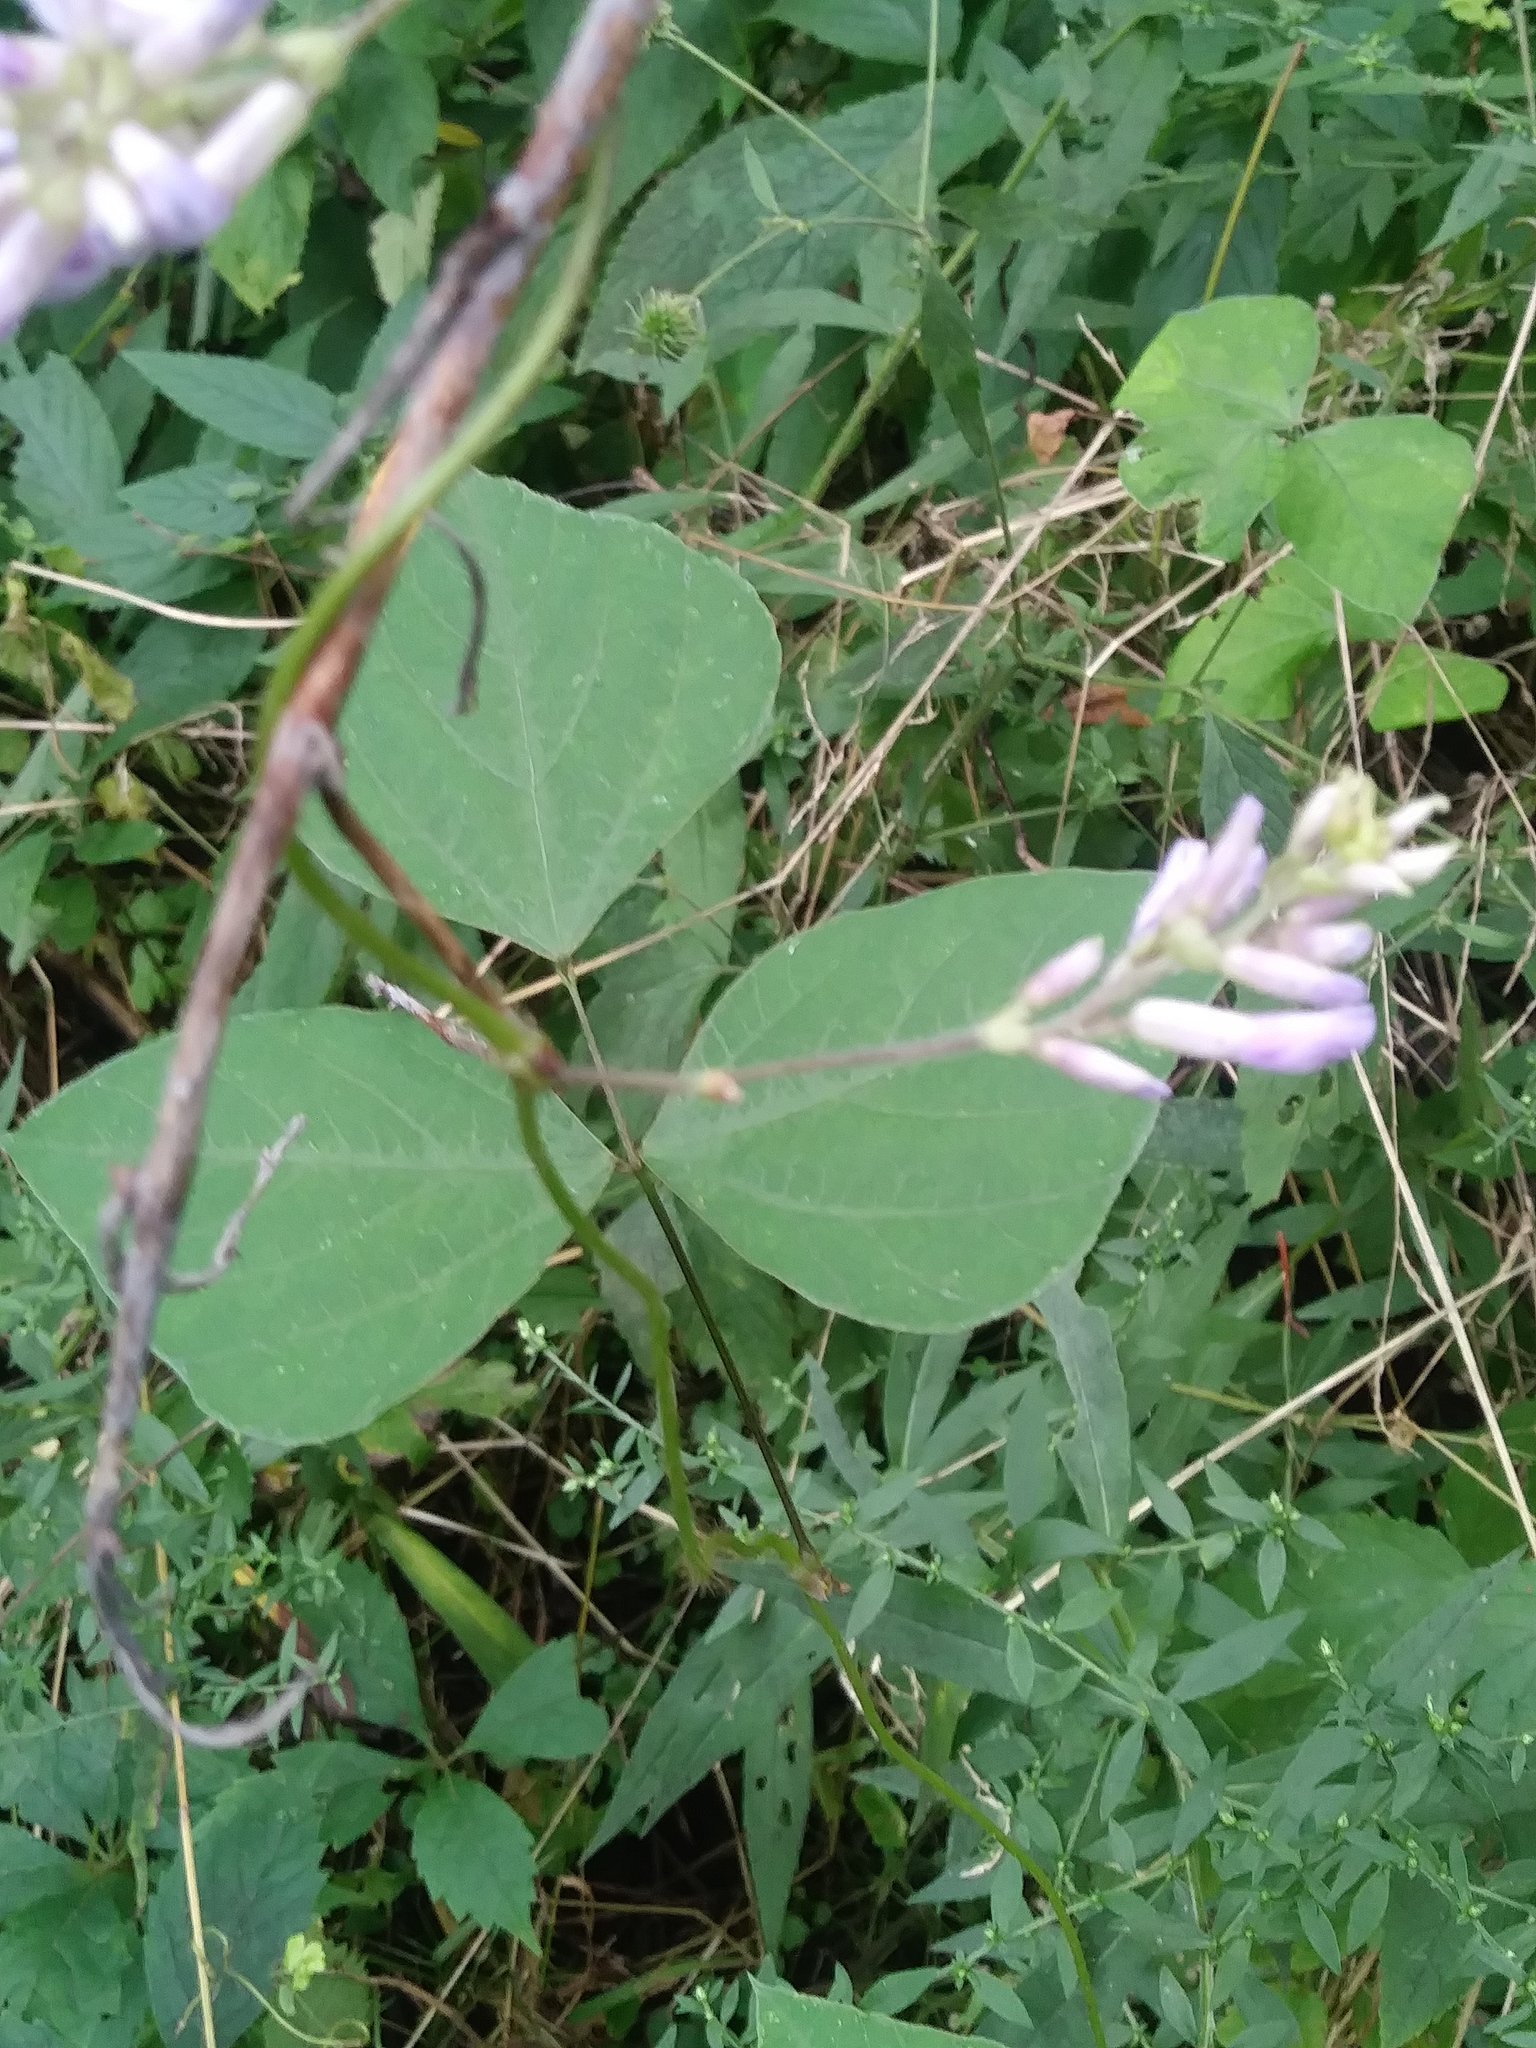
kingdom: Plantae
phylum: Tracheophyta
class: Magnoliopsida
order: Fabales
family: Fabaceae
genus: Amphicarpaea
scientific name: Amphicarpaea bracteata
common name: American hog peanut
